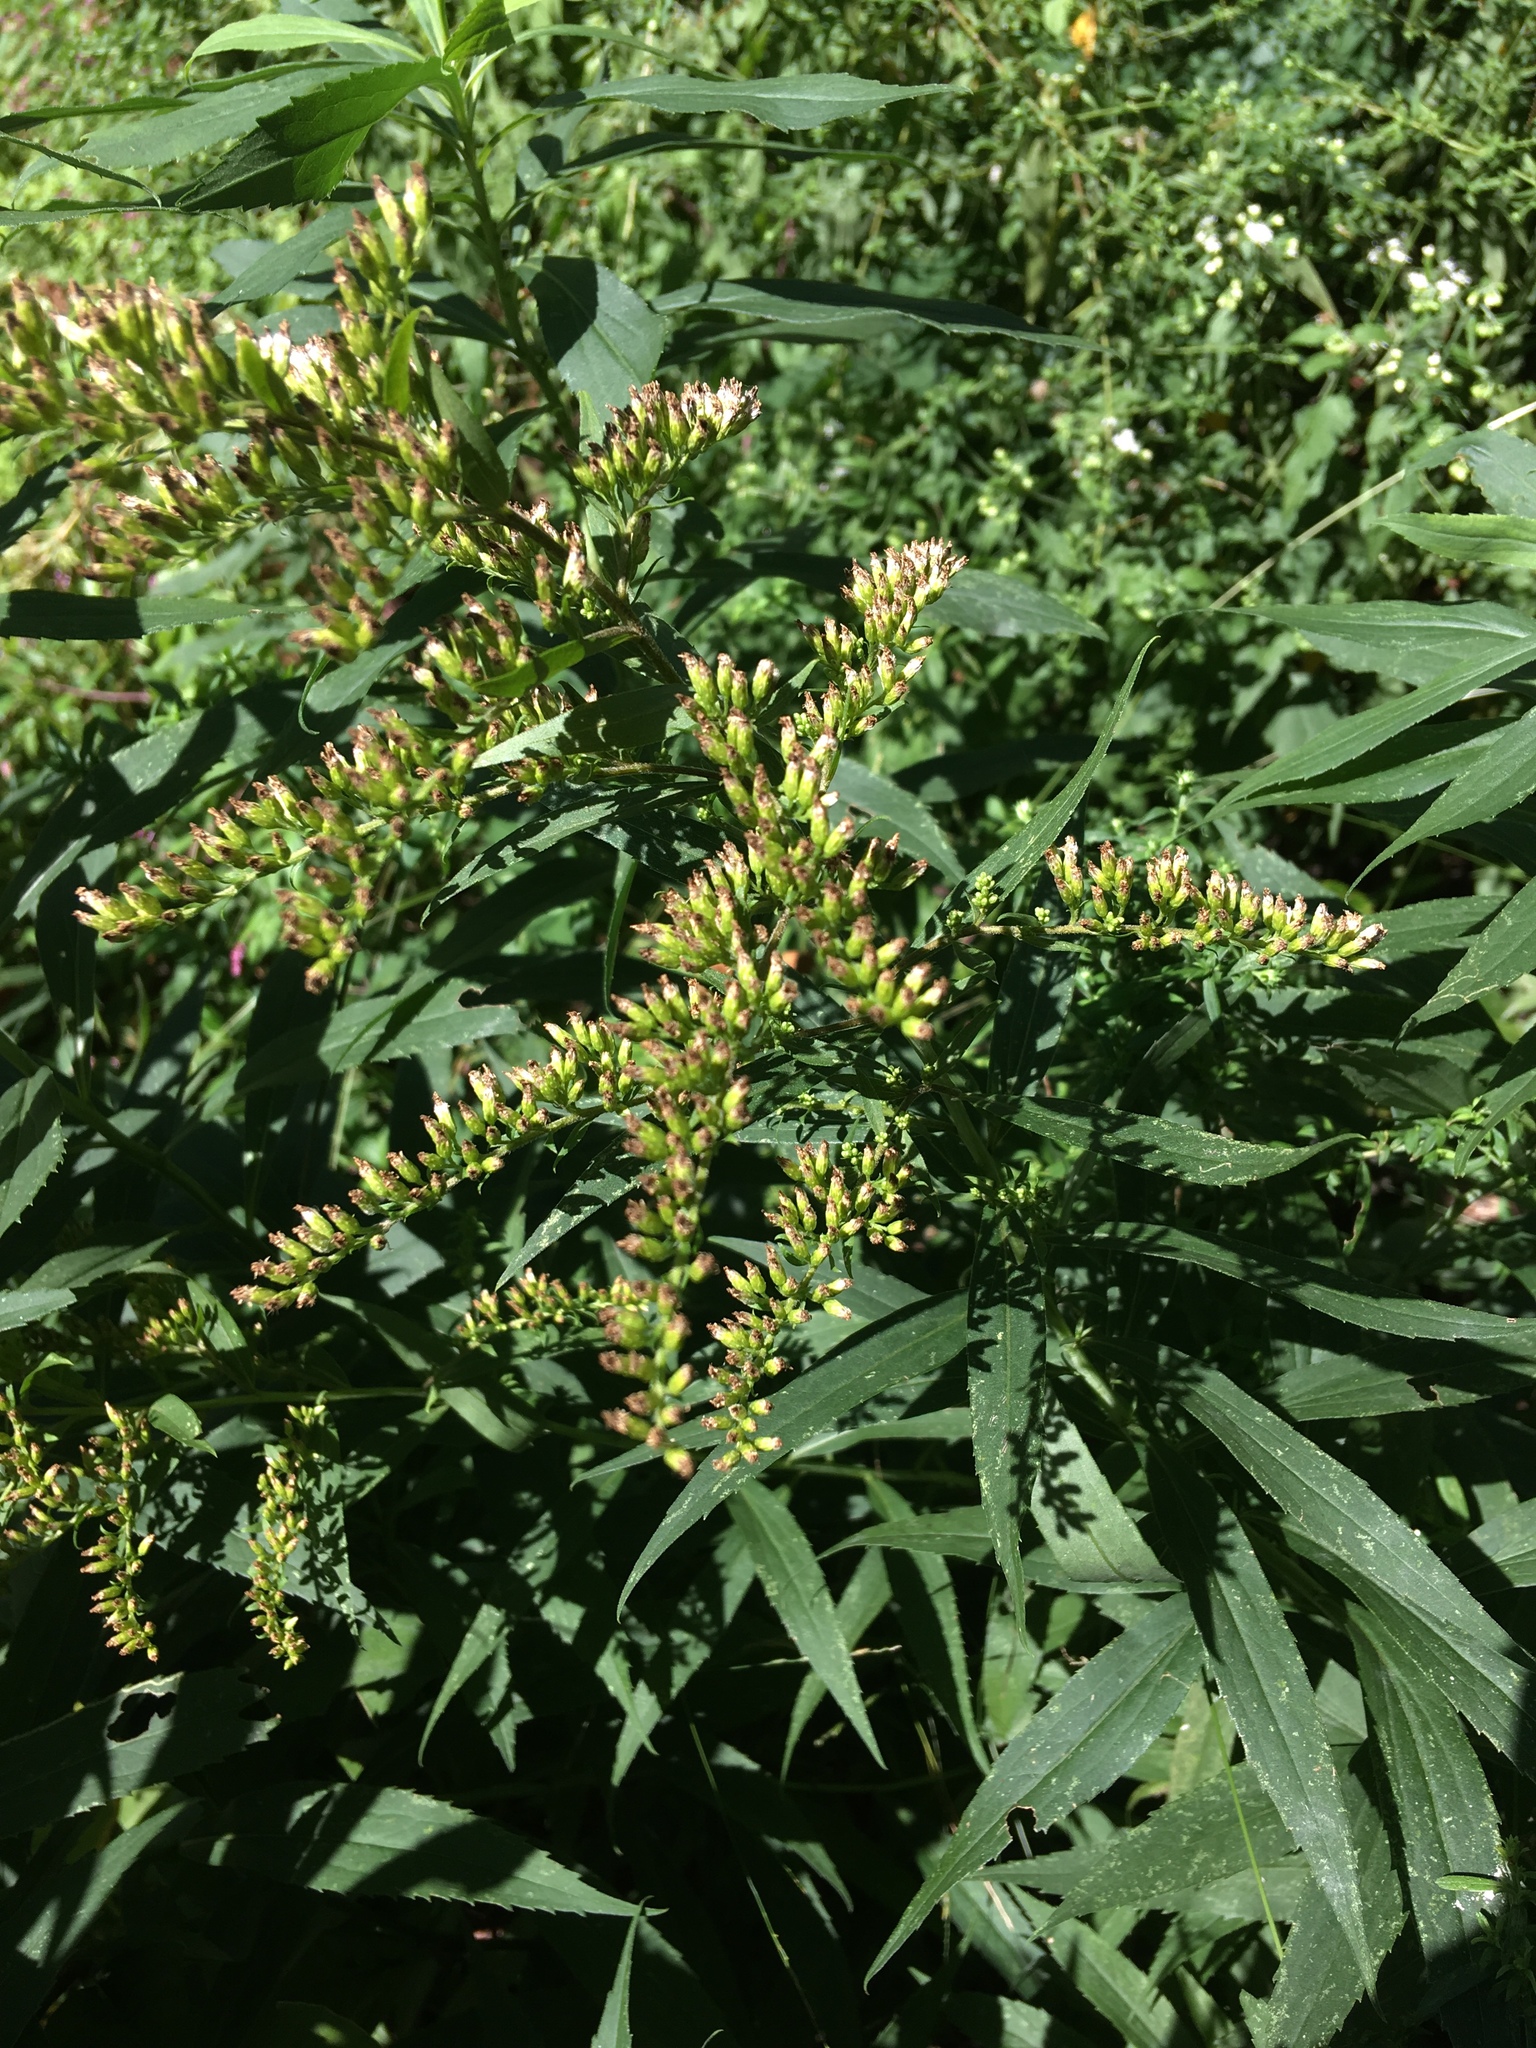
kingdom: Plantae
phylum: Tracheophyta
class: Magnoliopsida
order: Asterales
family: Asteraceae
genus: Solidago
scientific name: Solidago gigantea
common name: Giant goldenrod
